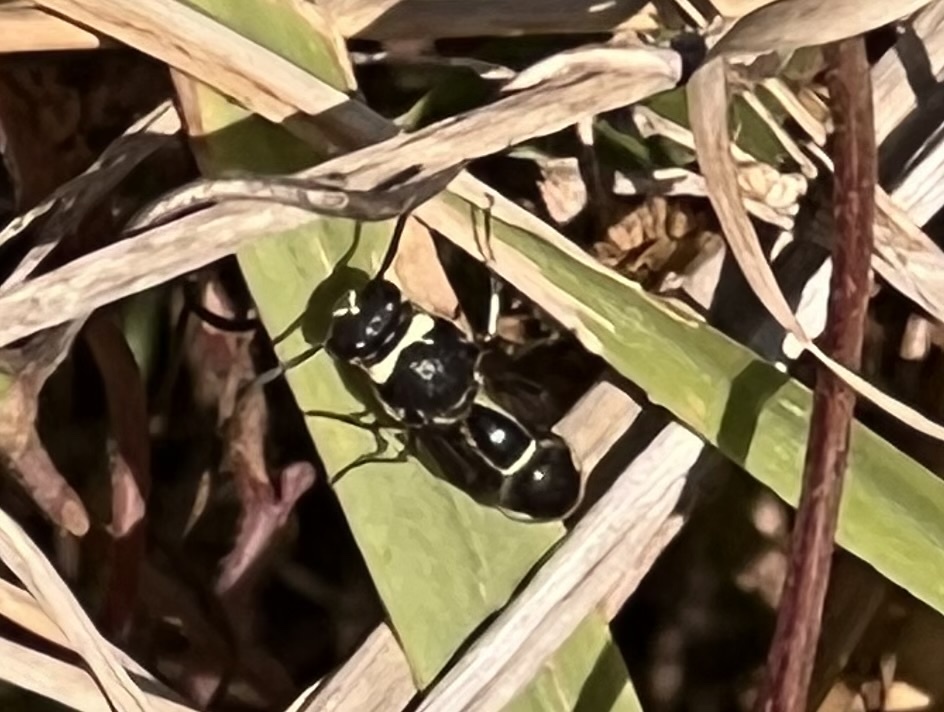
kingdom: Animalia
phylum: Arthropoda
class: Insecta
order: Hymenoptera
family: Vespidae
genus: Eumenes
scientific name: Eumenes fraternus
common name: Fraternal potter wasp
